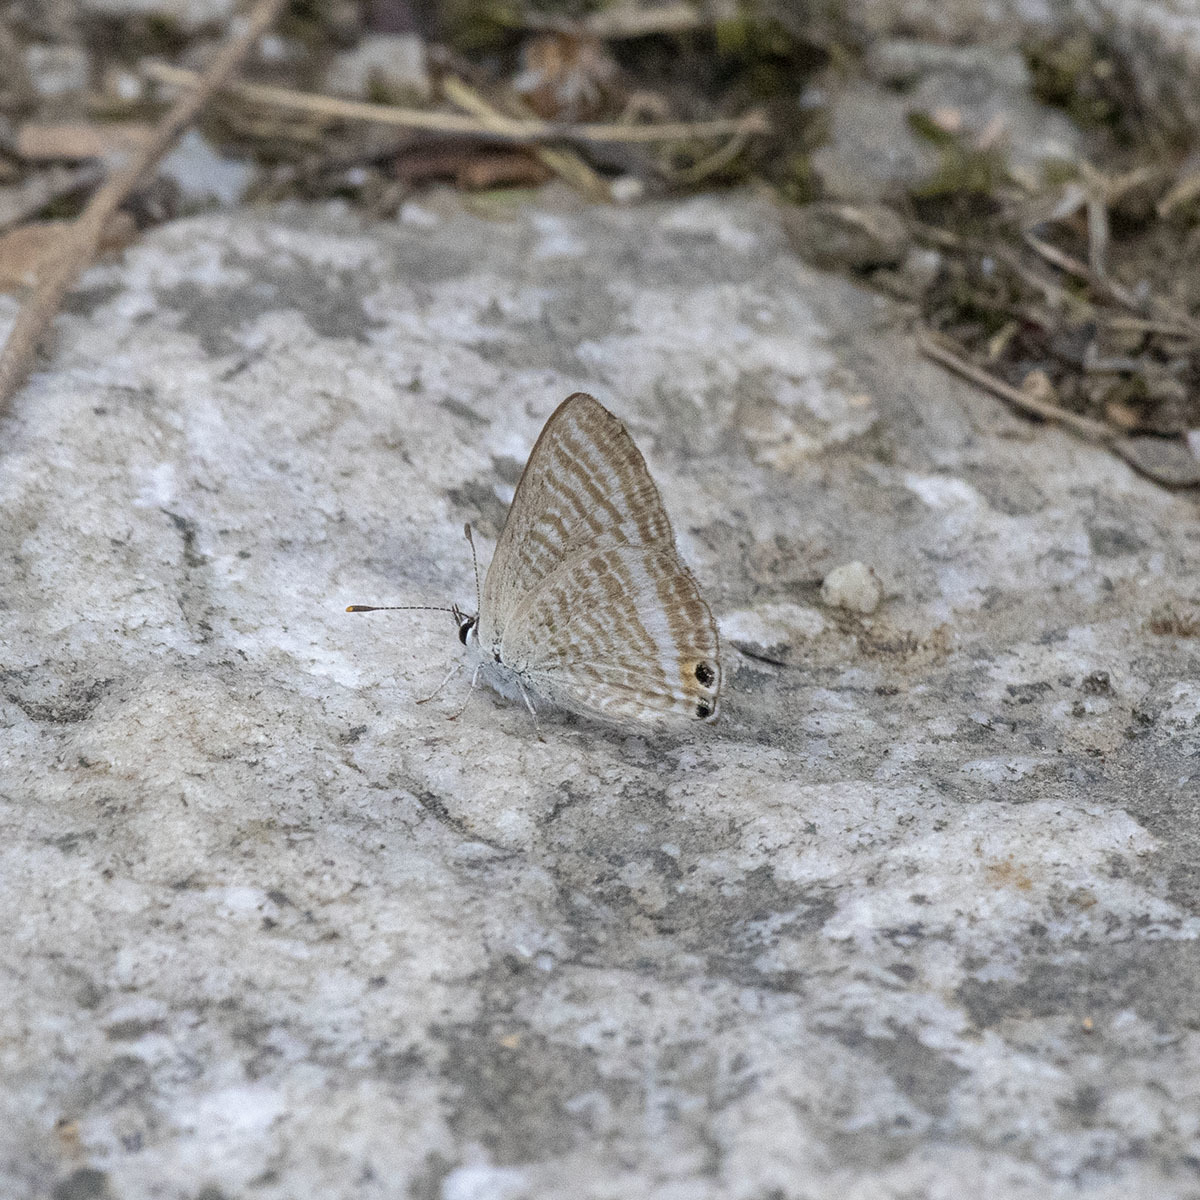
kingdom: Animalia
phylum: Arthropoda
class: Insecta
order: Lepidoptera
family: Lycaenidae
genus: Lampides
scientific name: Lampides boeticus
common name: Long-tailed blue
